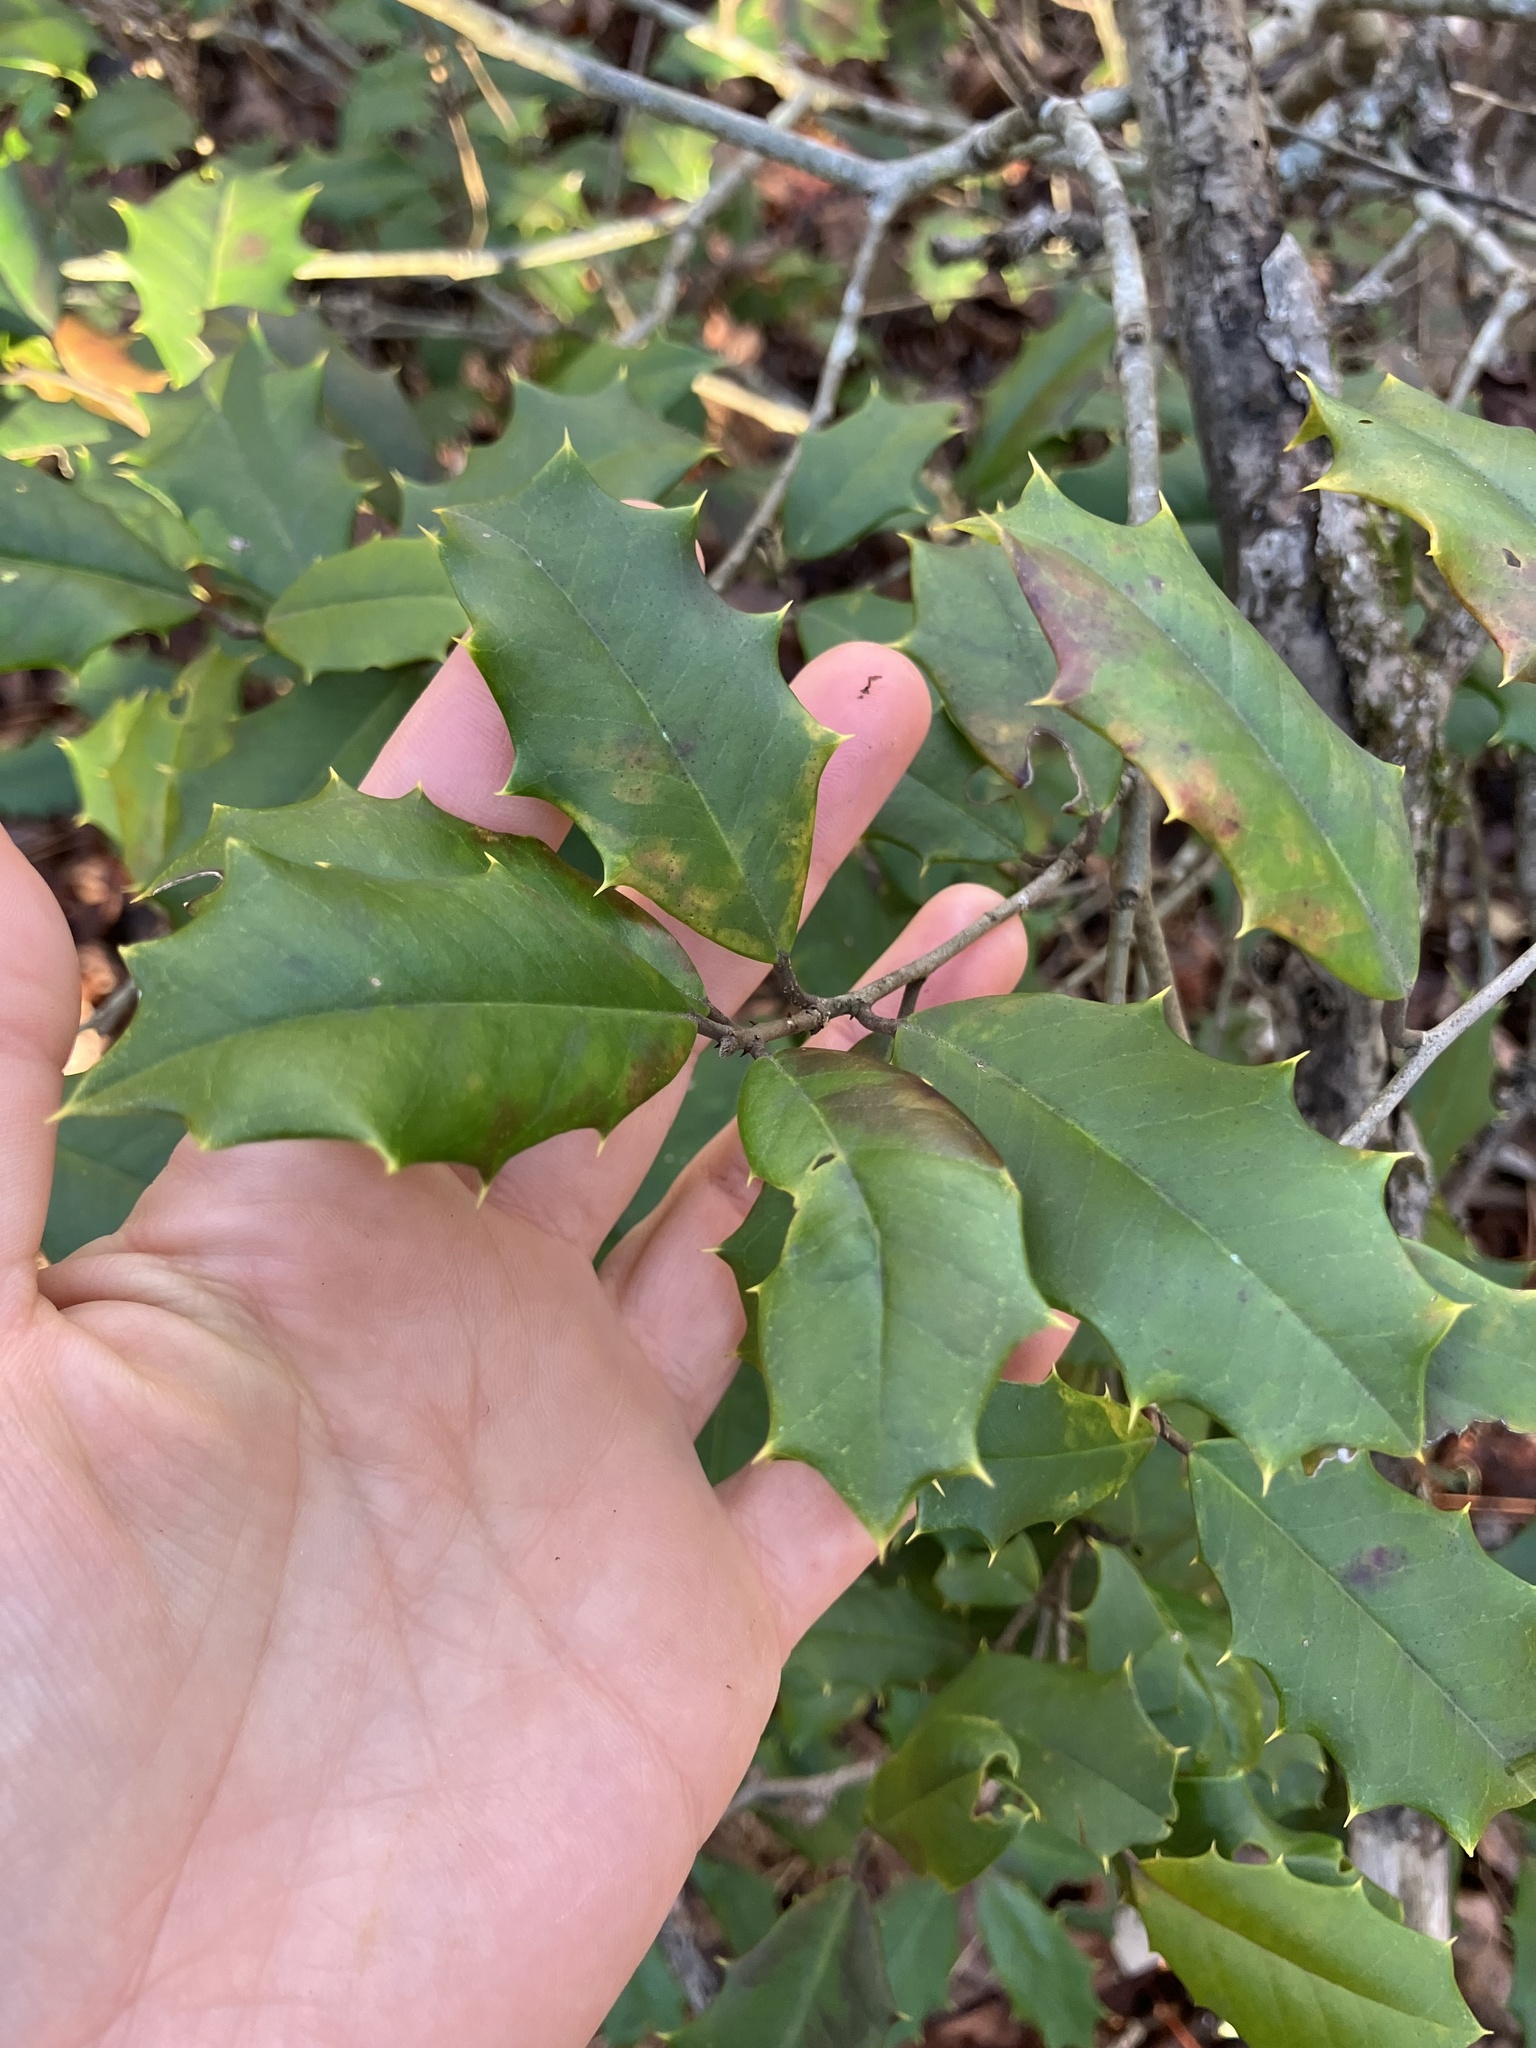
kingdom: Plantae
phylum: Tracheophyta
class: Magnoliopsida
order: Aquifoliales
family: Aquifoliaceae
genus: Ilex
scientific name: Ilex opaca
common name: American holly
